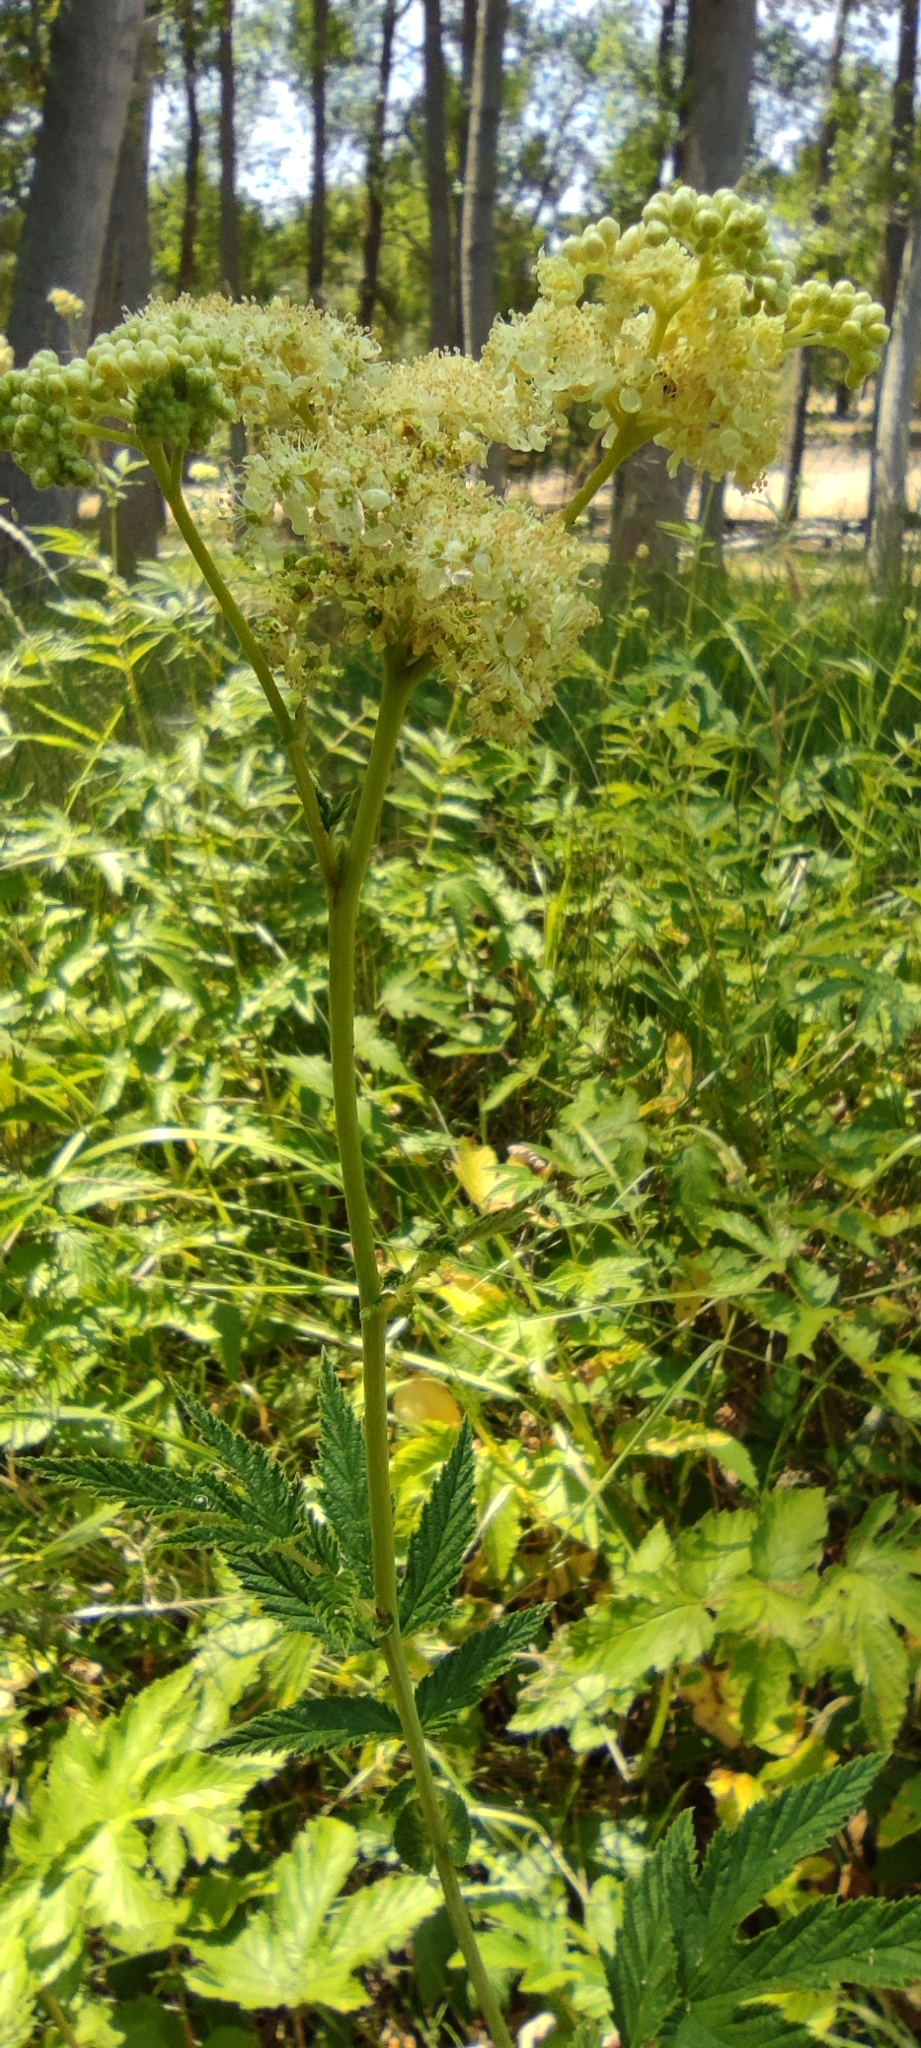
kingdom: Plantae
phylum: Tracheophyta
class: Magnoliopsida
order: Rosales
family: Rosaceae
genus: Filipendula
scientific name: Filipendula ulmaria
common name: Meadowsweet
